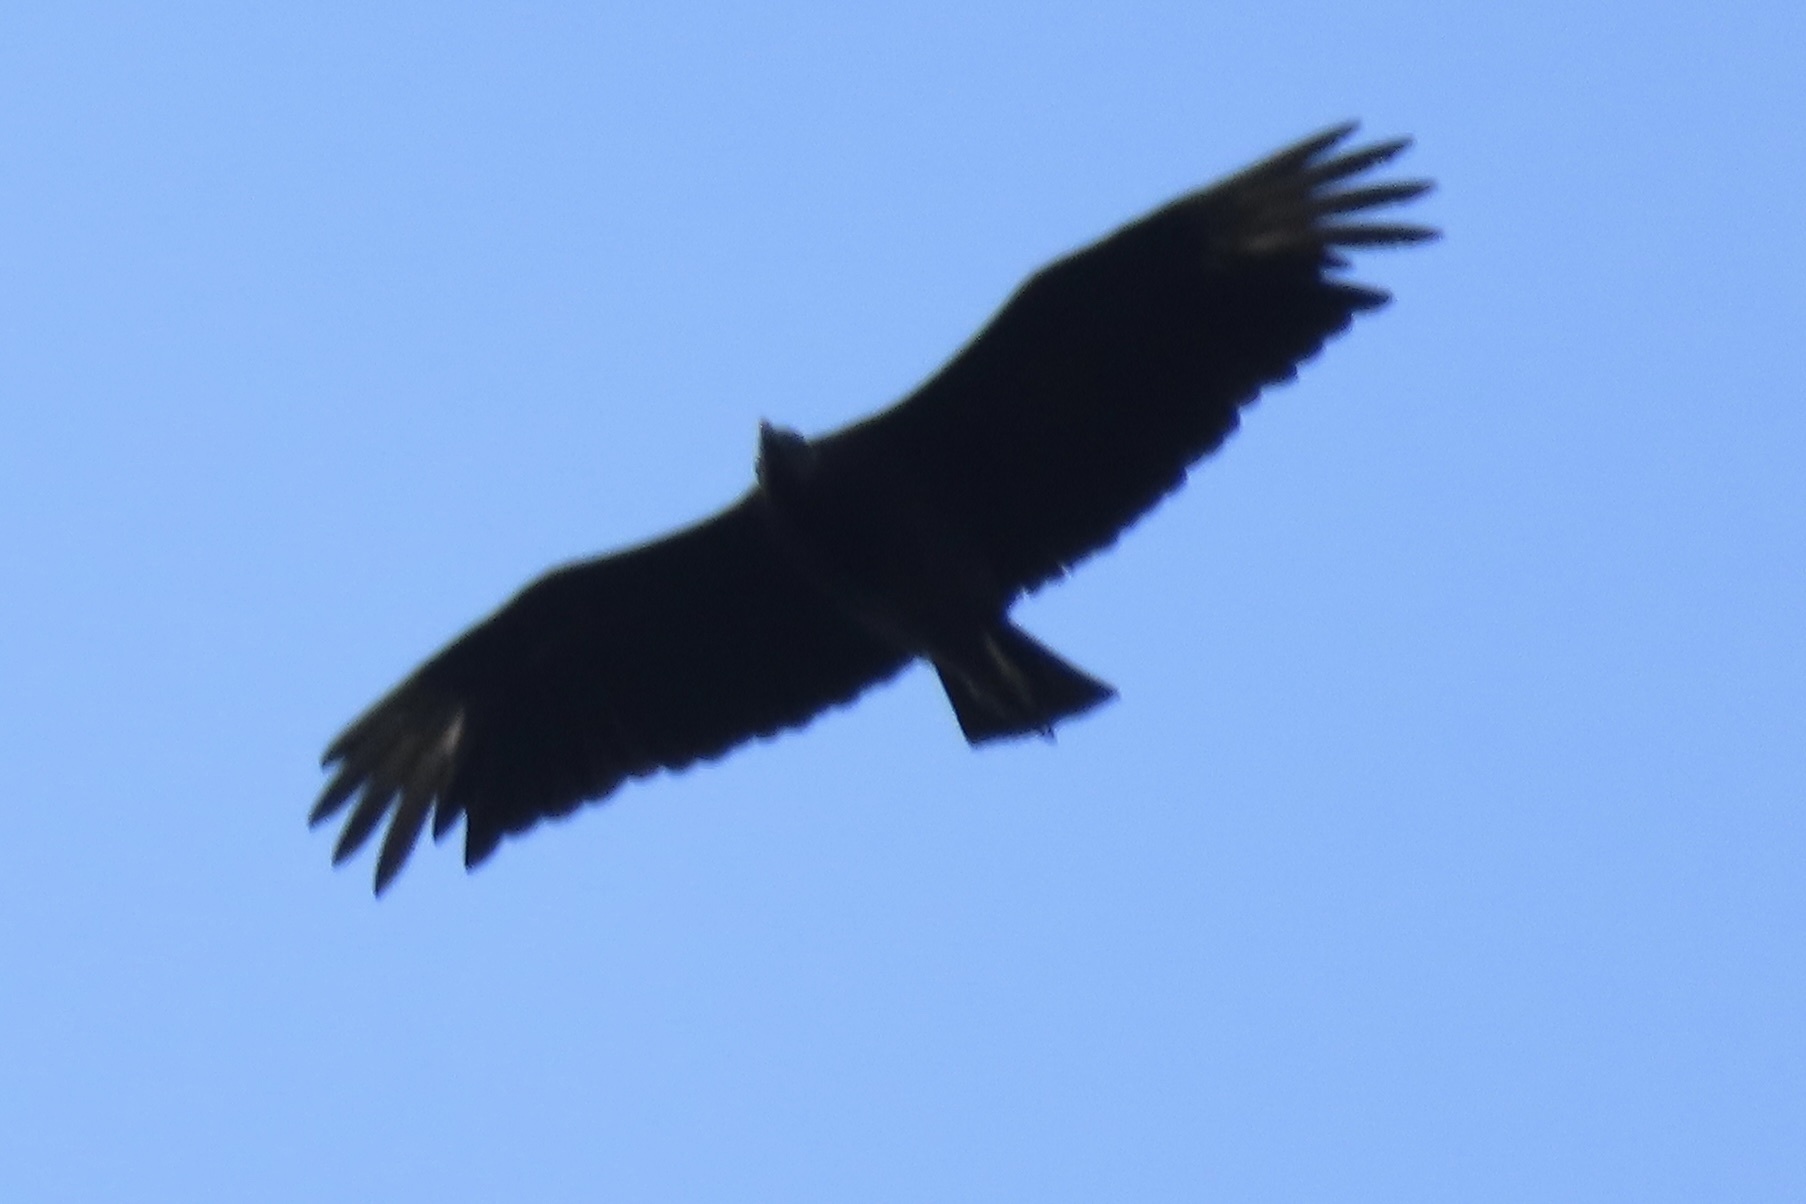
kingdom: Animalia
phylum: Chordata
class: Aves
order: Accipitriformes
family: Cathartidae
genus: Coragyps
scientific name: Coragyps atratus
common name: Black vulture
